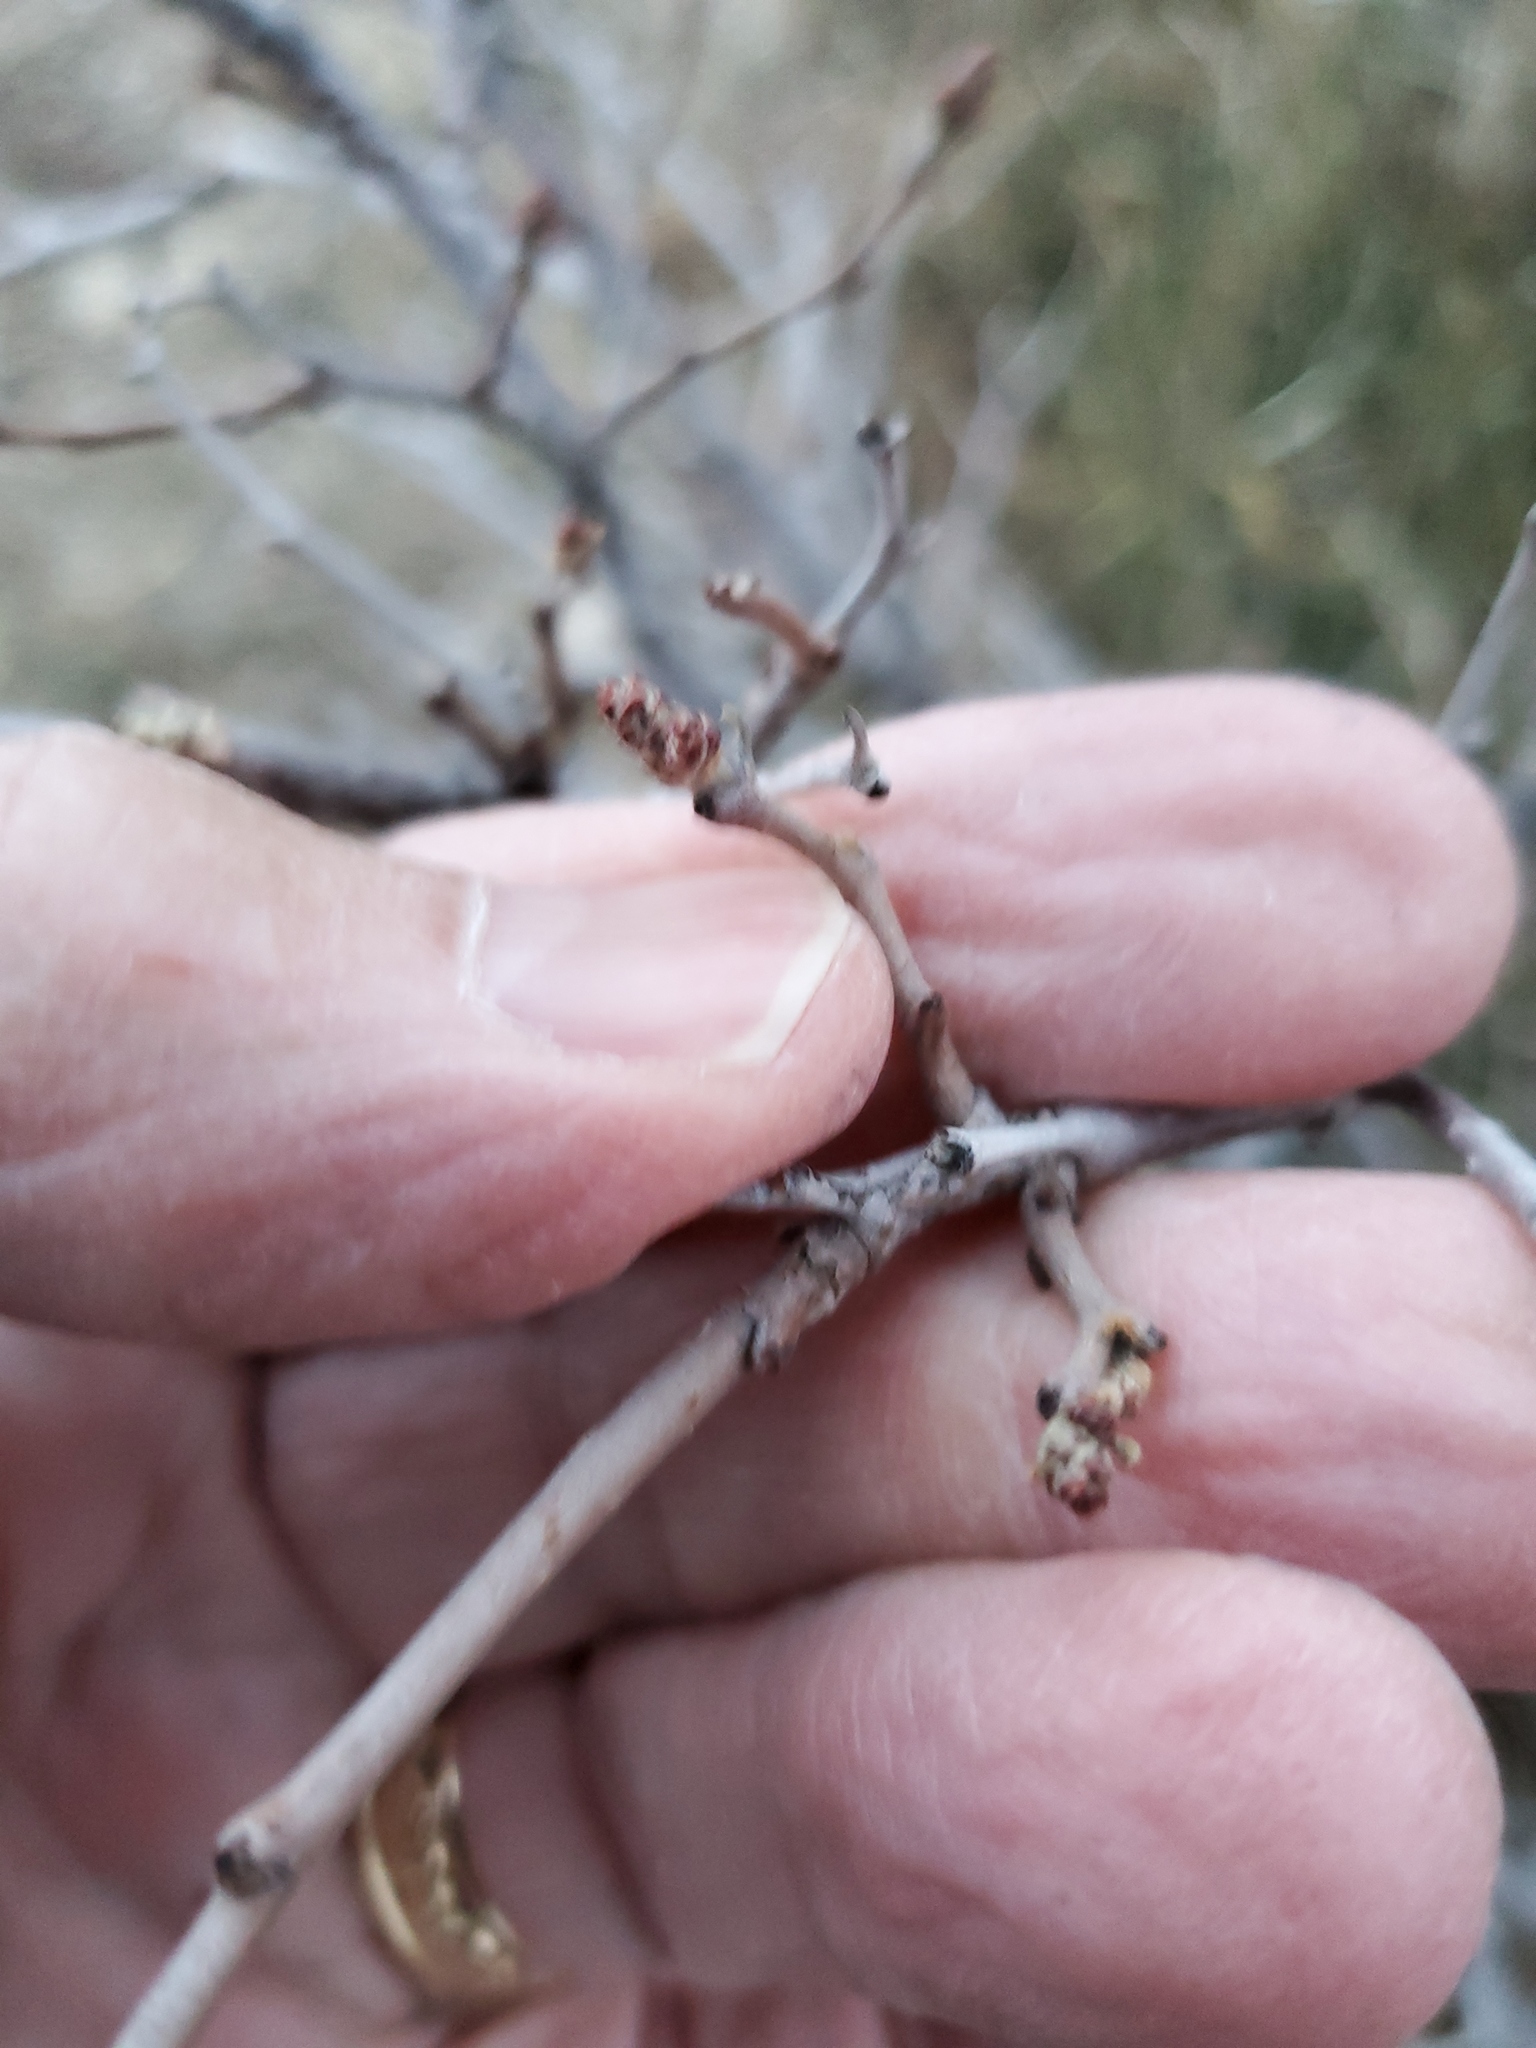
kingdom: Plantae
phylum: Tracheophyta
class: Magnoliopsida
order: Sapindales
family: Anacardiaceae
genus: Rhus
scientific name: Rhus aromatica
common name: Aromatic sumac
